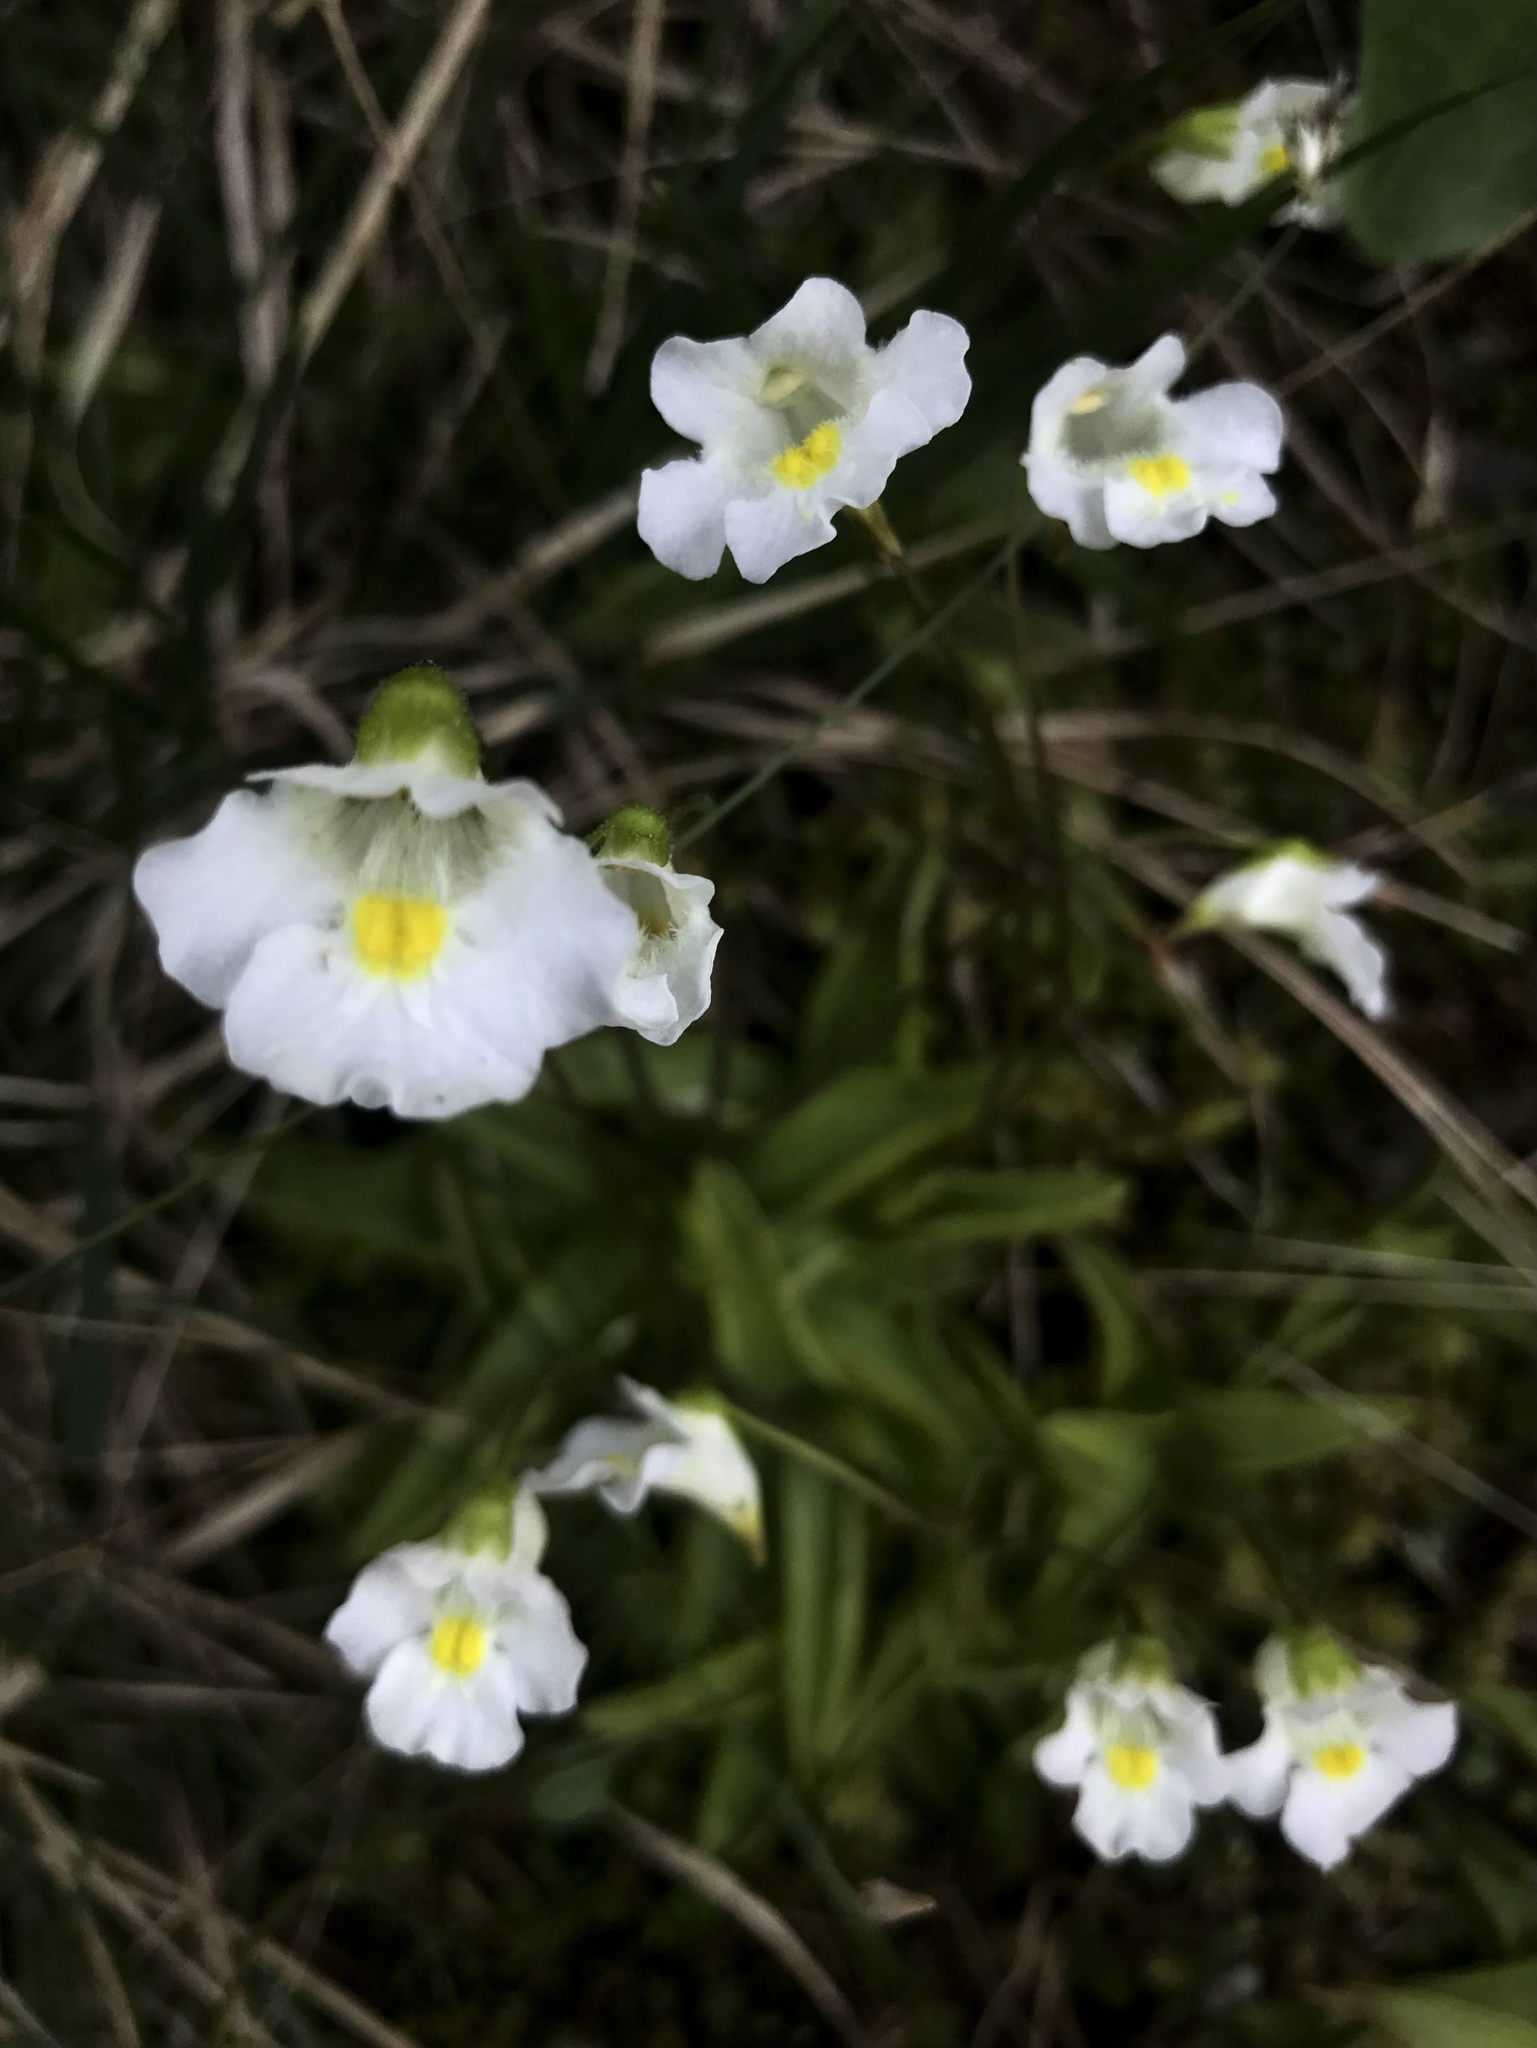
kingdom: Plantae
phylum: Tracheophyta
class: Magnoliopsida
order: Lamiales
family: Lentibulariaceae
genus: Pinguicula
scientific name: Pinguicula alpina
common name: Alpine butterwort
